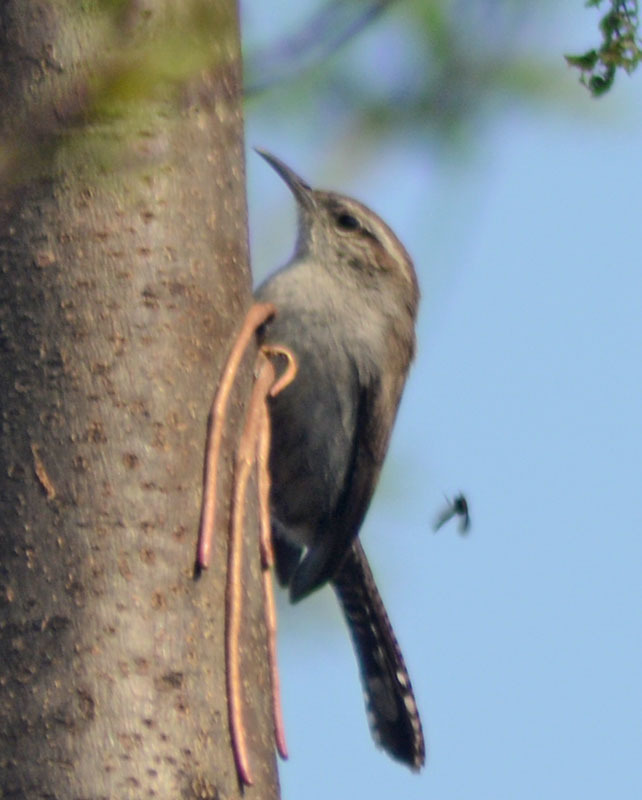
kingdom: Animalia
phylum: Chordata
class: Aves
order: Passeriformes
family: Troglodytidae
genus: Thryomanes
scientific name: Thryomanes bewickii
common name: Bewick's wren
